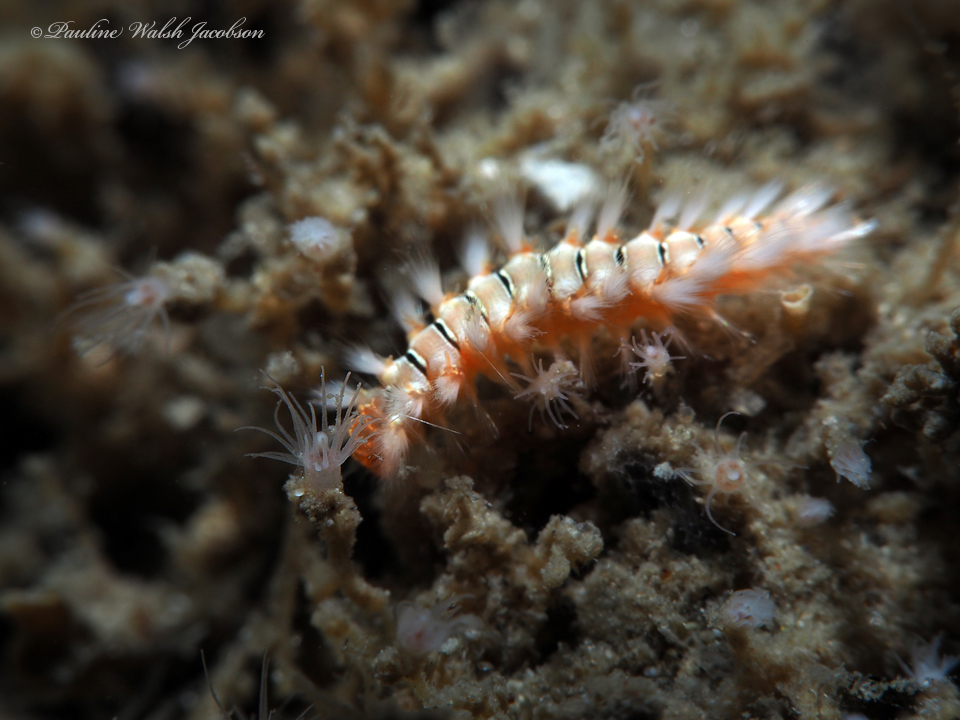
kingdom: Animalia
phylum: Annelida
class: Polychaeta
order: Amphinomida
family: Amphinomidae
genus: Hermodice
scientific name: Hermodice carunculata
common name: Bearded fireworm
